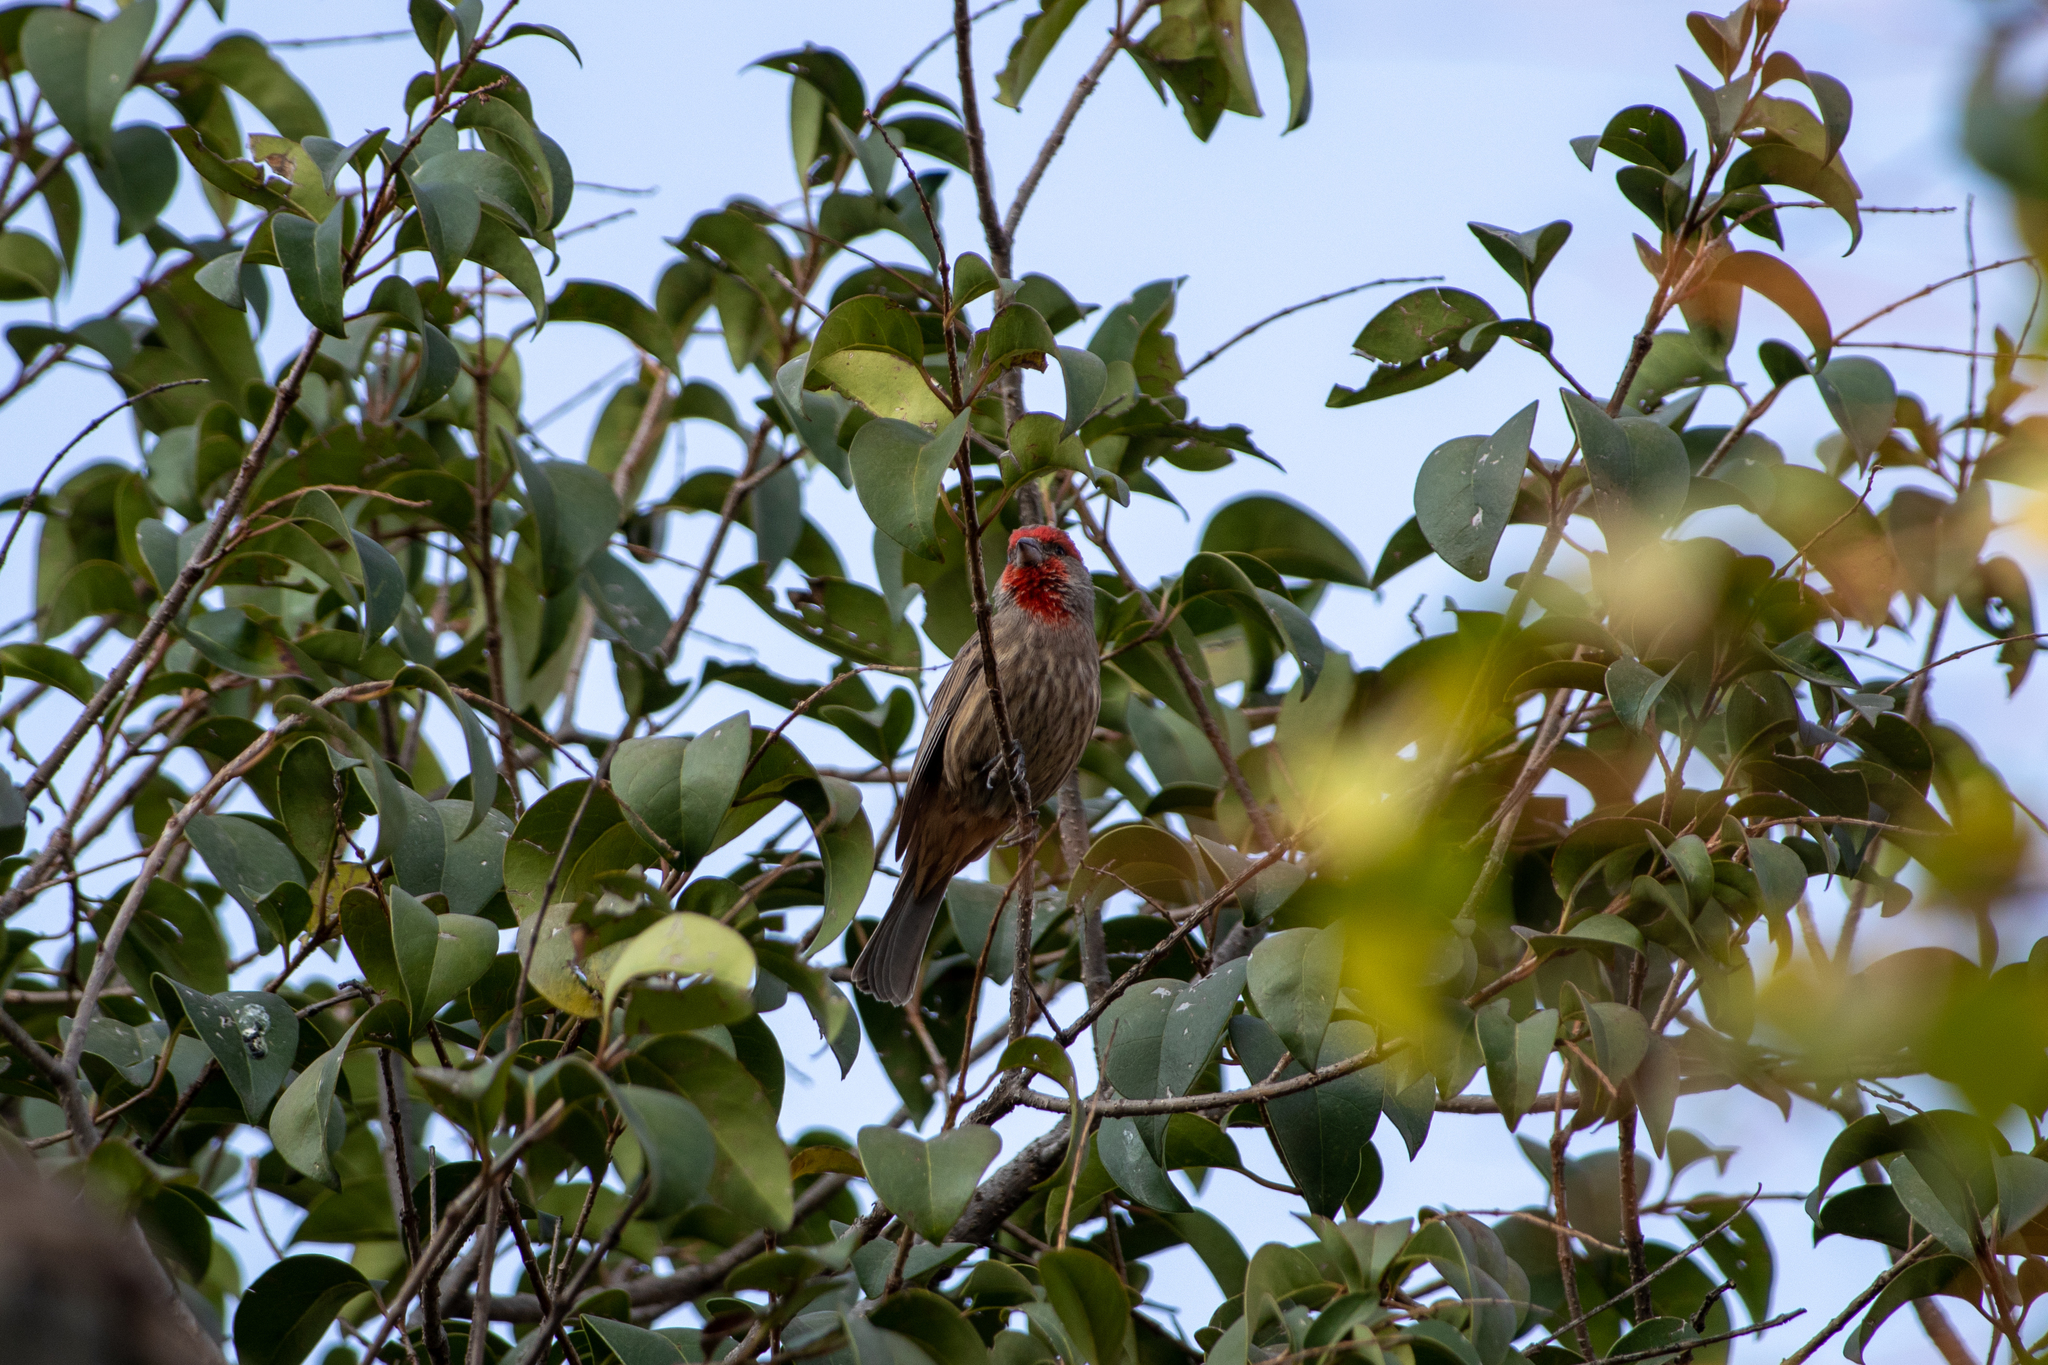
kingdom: Animalia
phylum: Chordata
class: Aves
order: Passeriformes
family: Fringillidae
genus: Haemorhous
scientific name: Haemorhous mexicanus
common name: House finch
